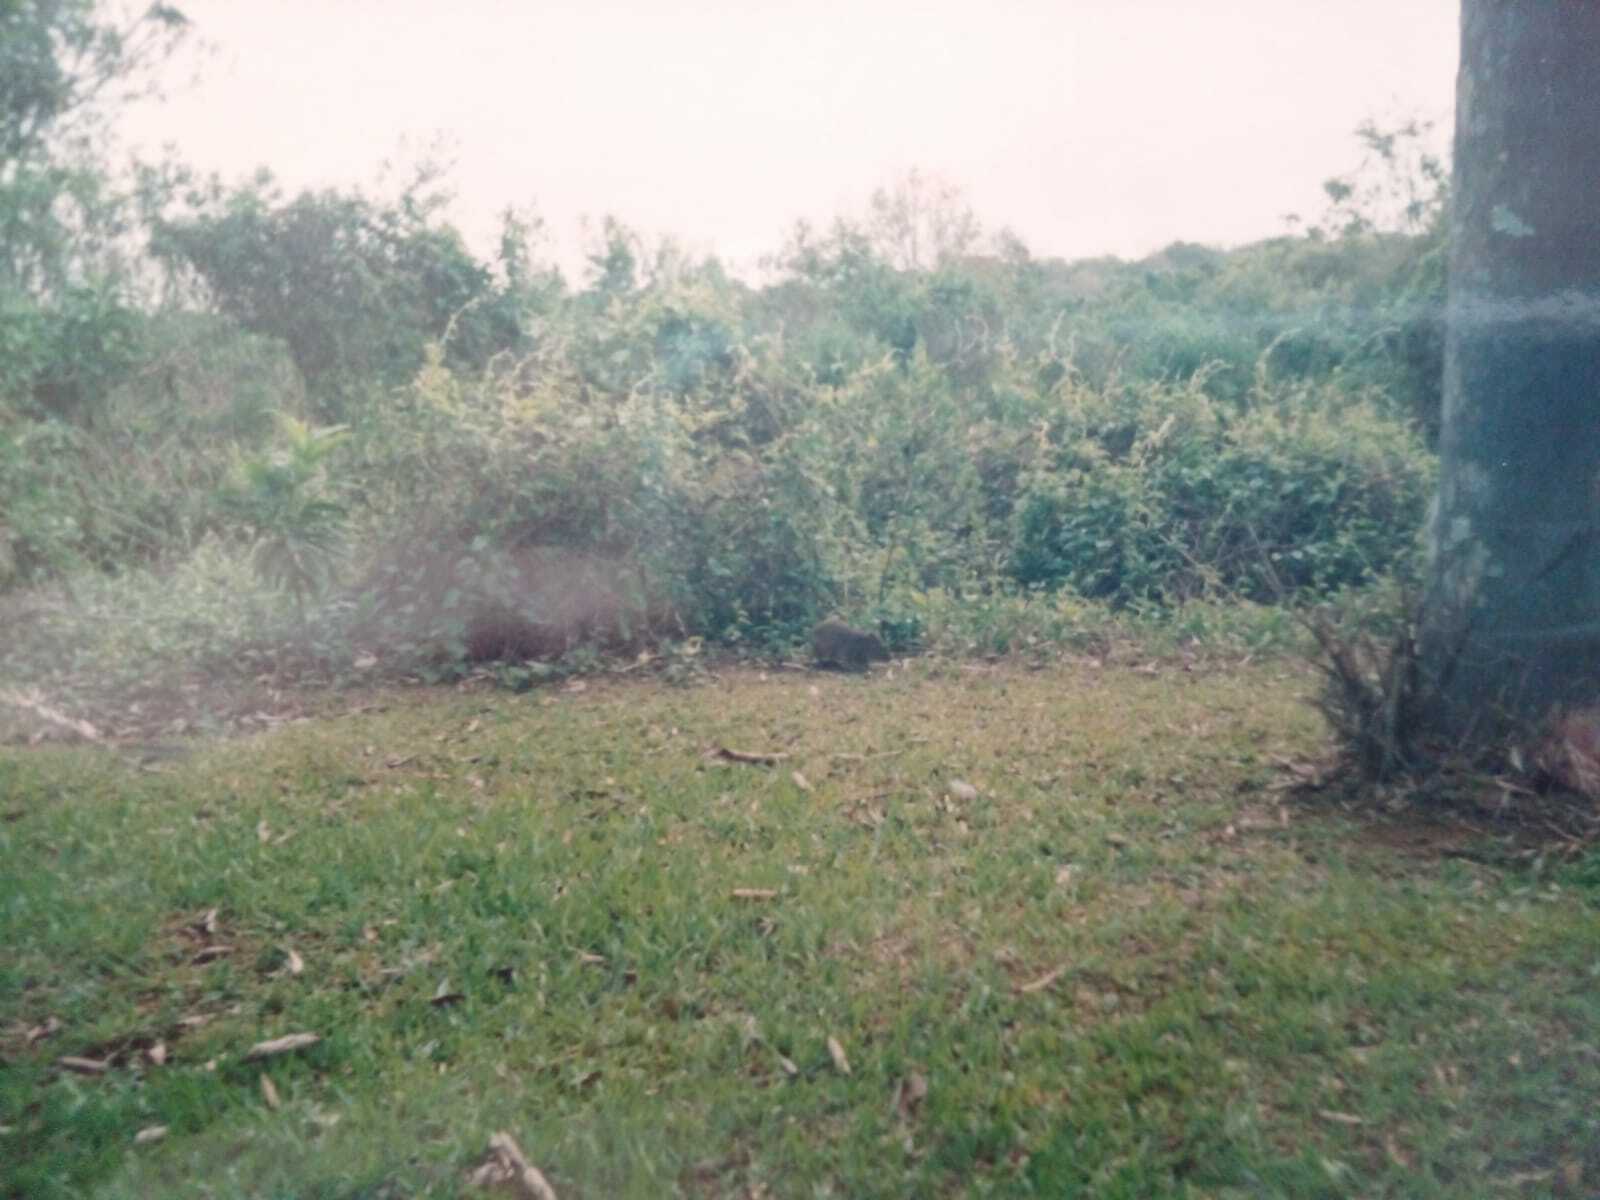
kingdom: Animalia
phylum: Chordata
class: Mammalia
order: Rodentia
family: Caviidae
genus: Cavia
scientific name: Cavia aperea
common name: Brazilian guinea pig
